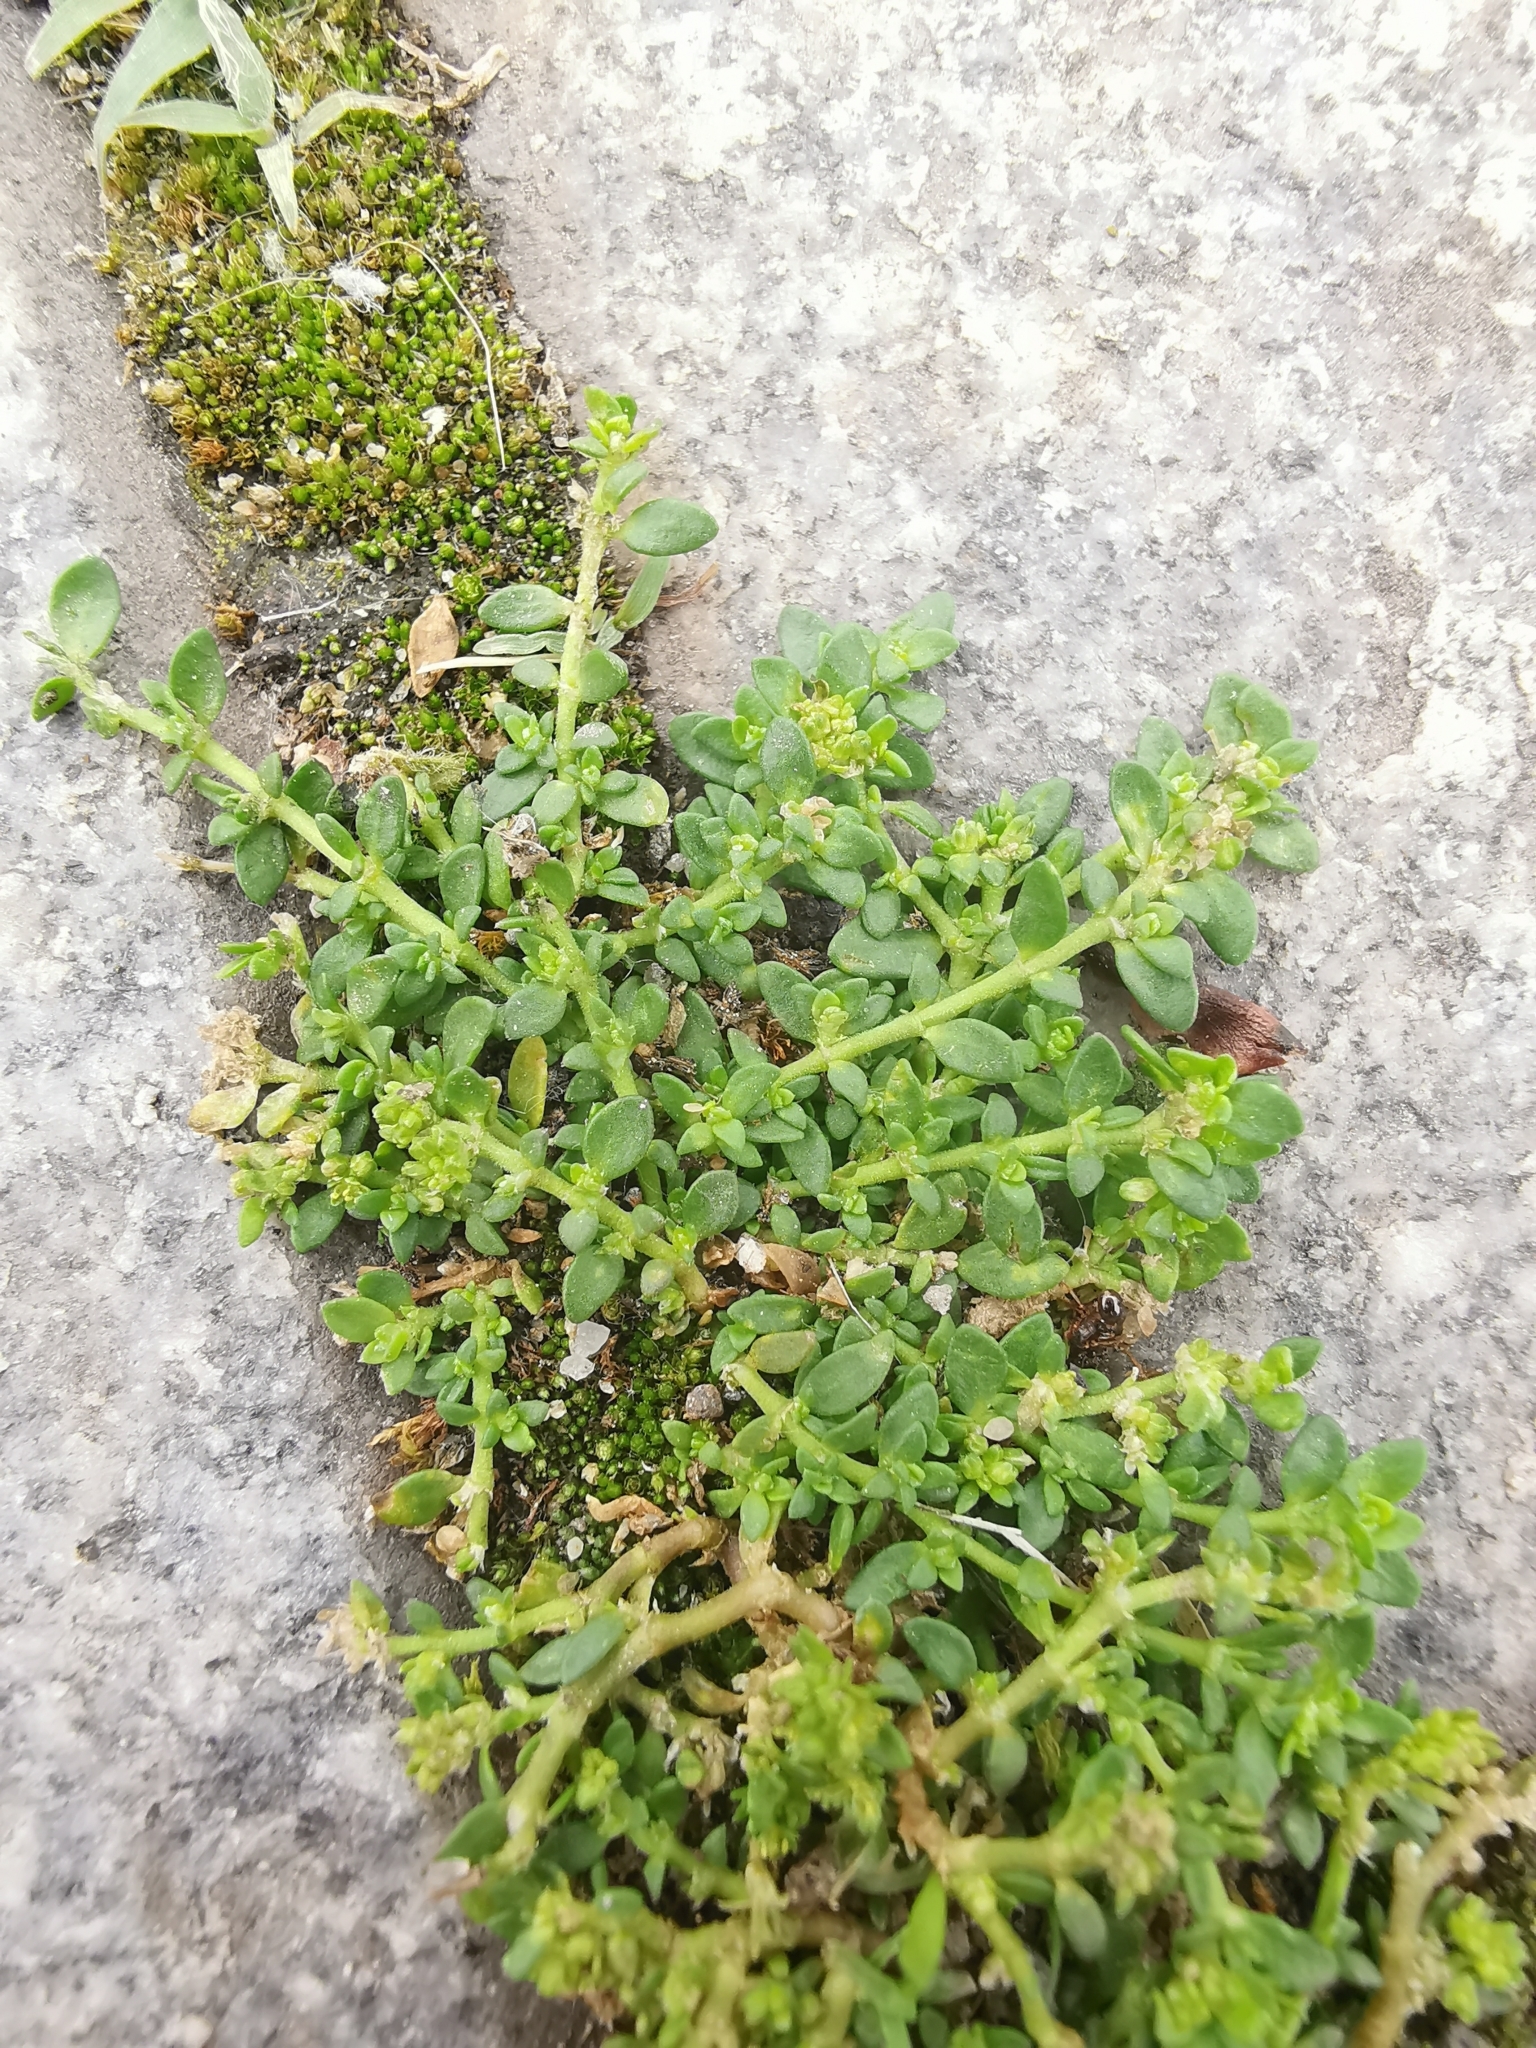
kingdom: Plantae
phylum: Tracheophyta
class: Magnoliopsida
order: Caryophyllales
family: Caryophyllaceae
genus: Herniaria
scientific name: Herniaria glabra
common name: Smooth rupturewort
